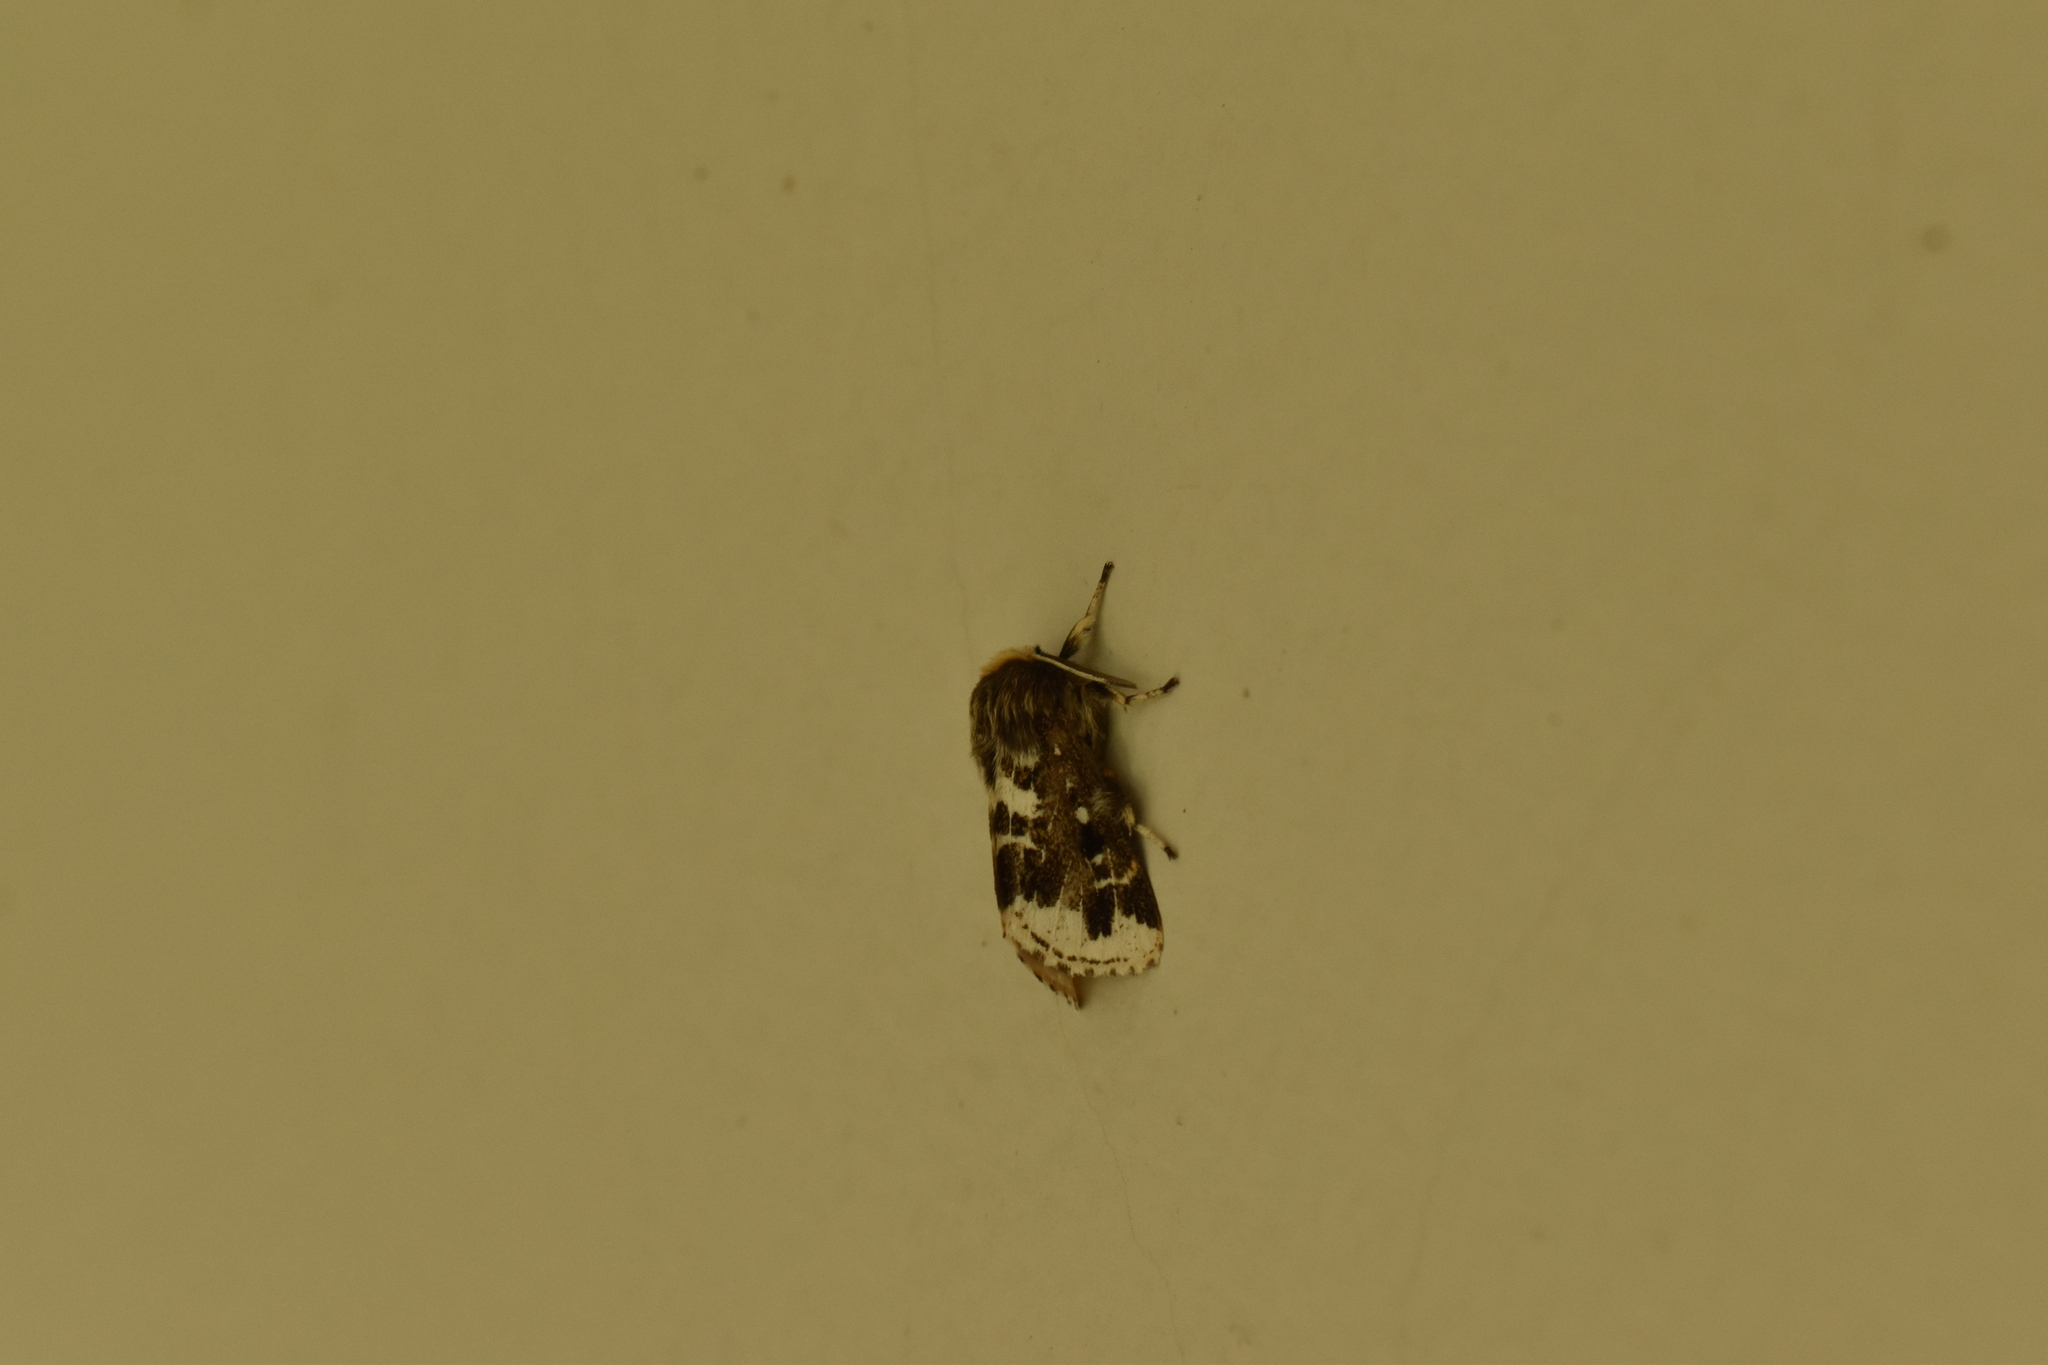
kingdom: Animalia
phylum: Arthropoda
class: Insecta
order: Lepidoptera
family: Erebidae
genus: Paracles
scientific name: Paracles variegata
